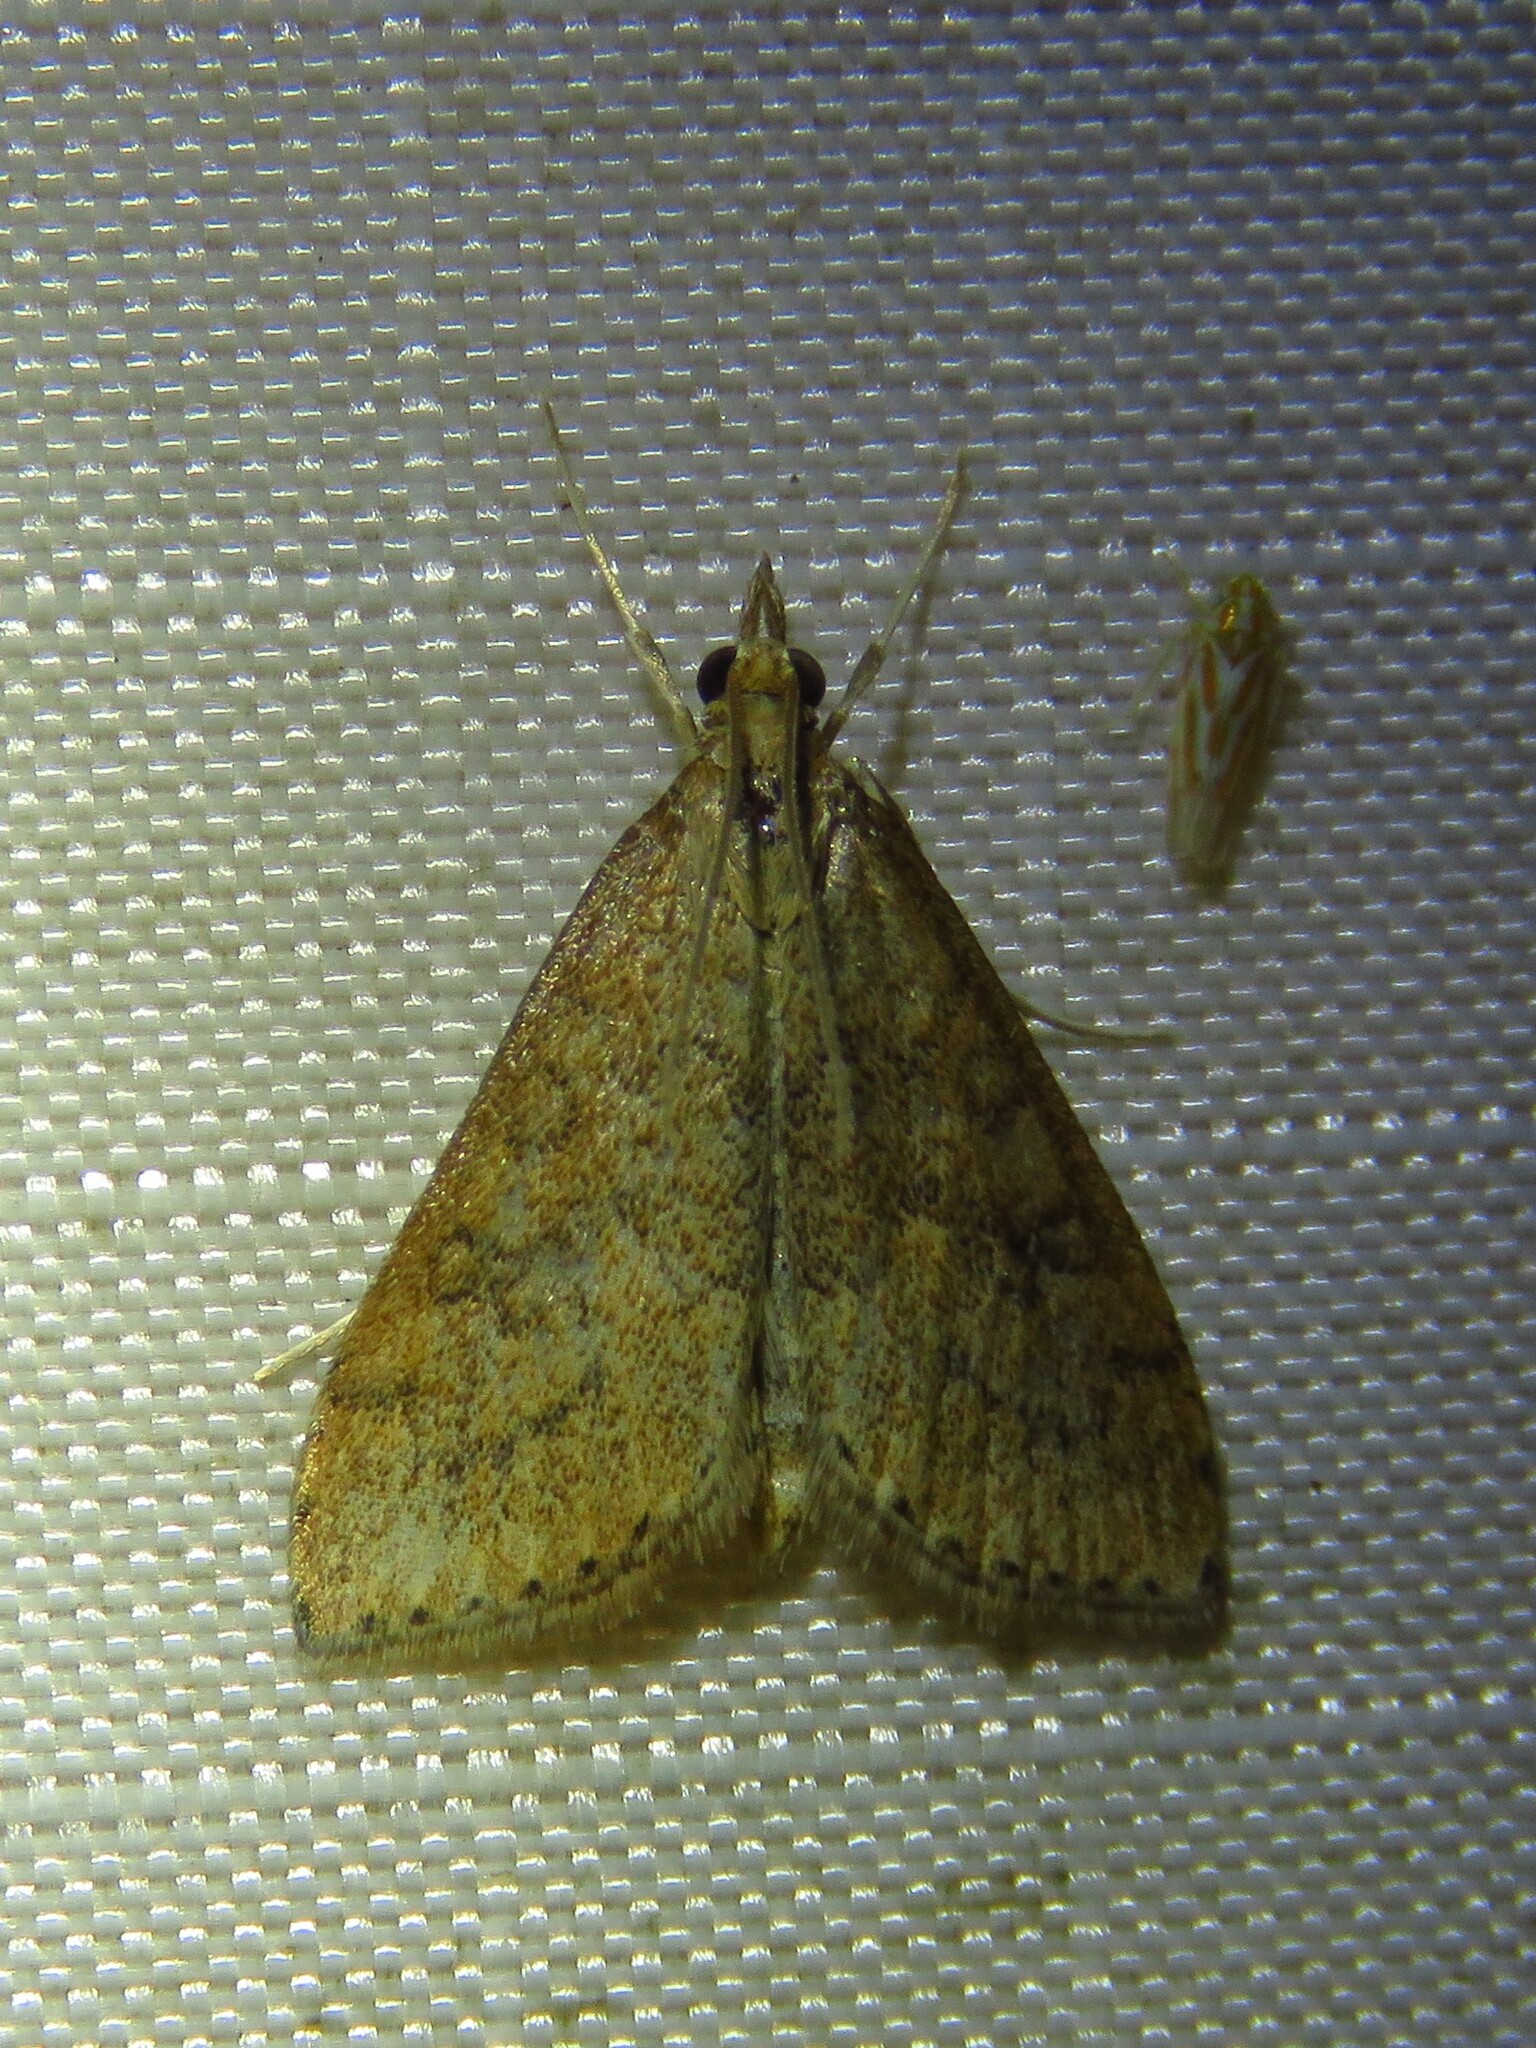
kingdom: Animalia
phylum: Arthropoda
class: Insecta
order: Lepidoptera
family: Crambidae
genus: Udea
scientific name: Udea rubigalis
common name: Celery leaftier moth
